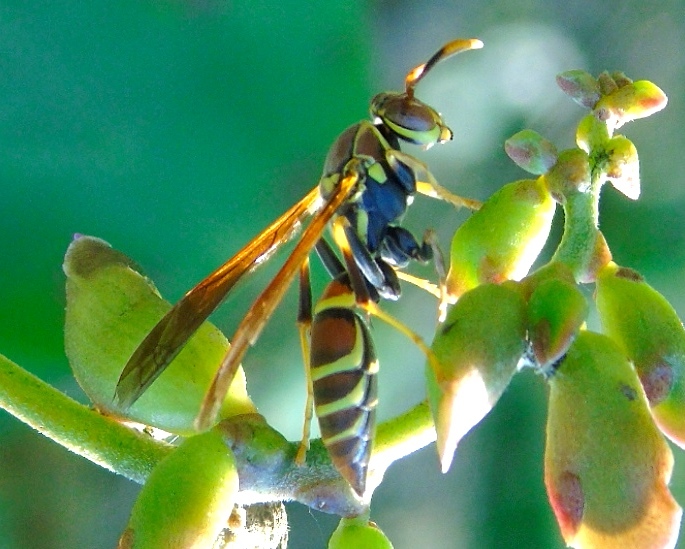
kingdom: Animalia
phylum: Arthropoda
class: Insecta
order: Hymenoptera
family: Eumenidae
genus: Polistes
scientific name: Polistes instabilis
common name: Unstable paper wasp
